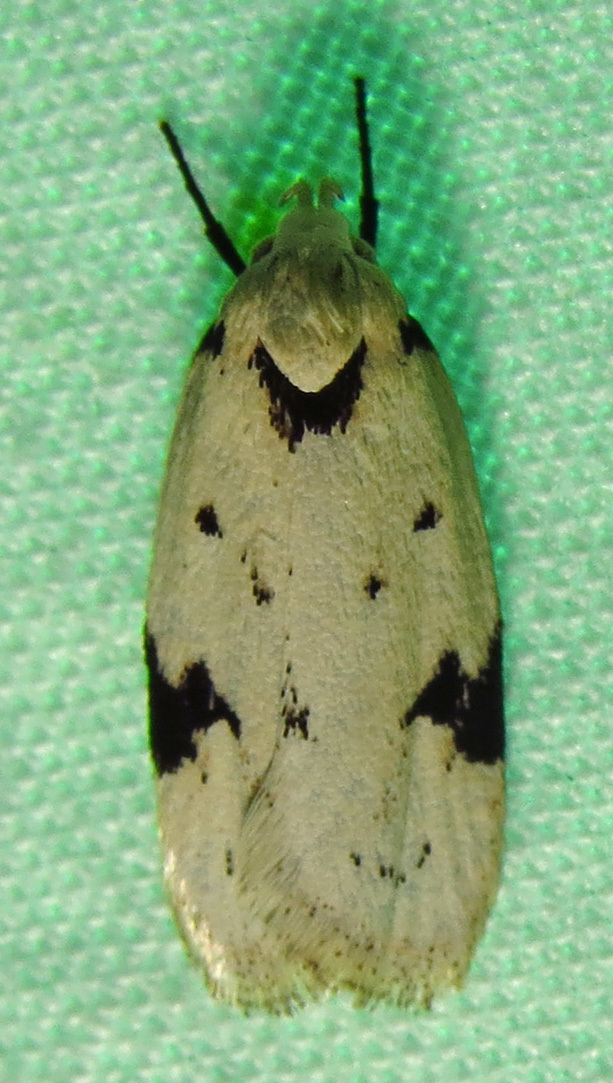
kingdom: Animalia
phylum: Arthropoda
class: Insecta
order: Lepidoptera
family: Oecophoridae
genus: Inga
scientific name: Inga sparsiciliella
